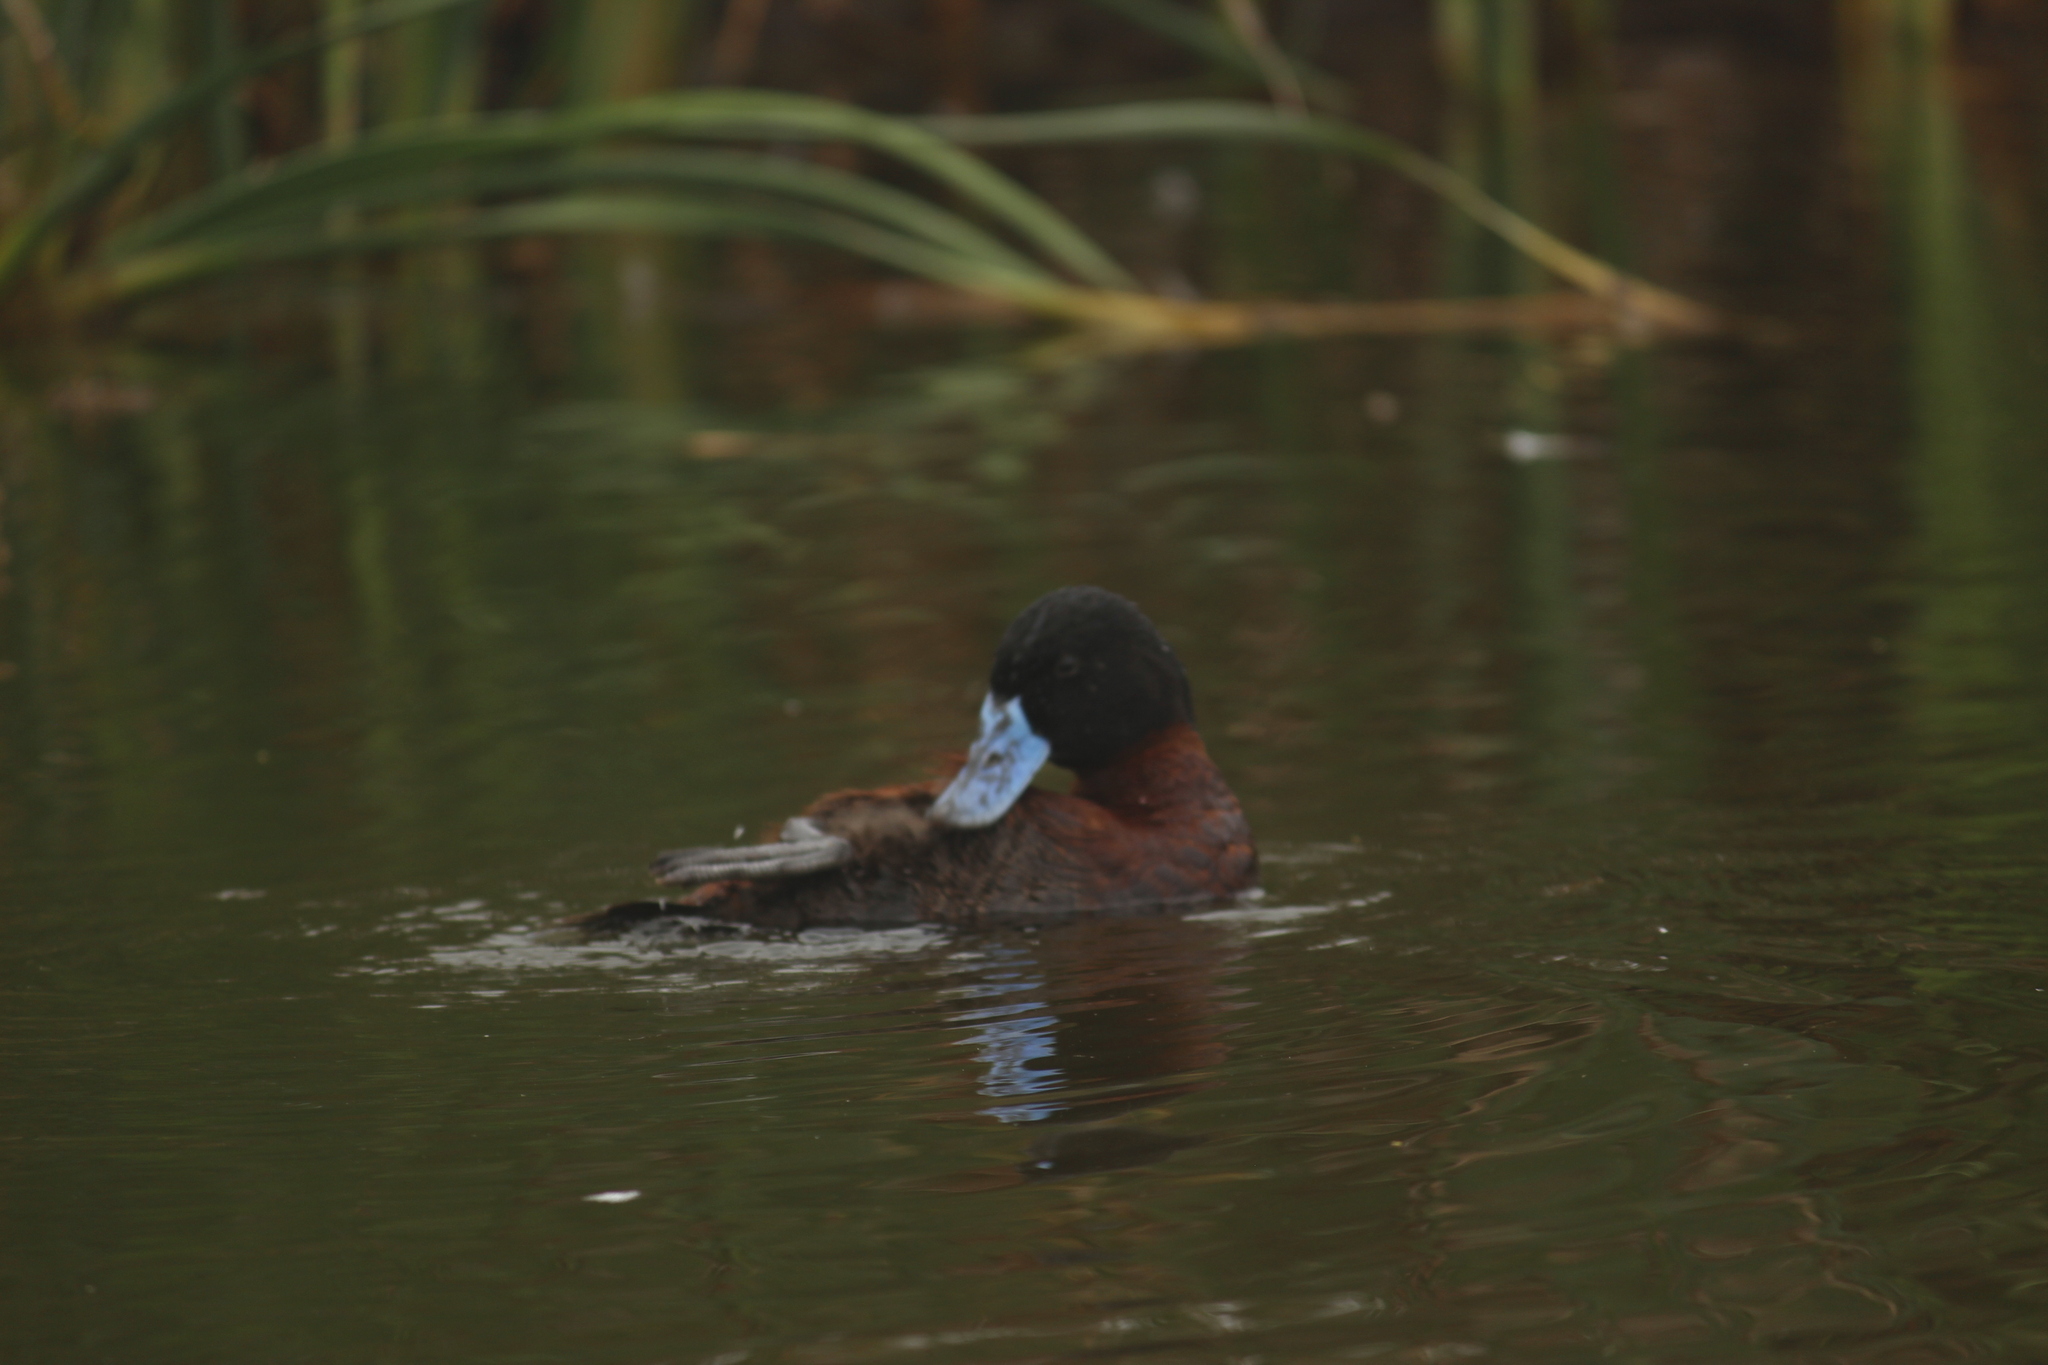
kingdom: Animalia
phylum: Chordata
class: Aves
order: Anseriformes
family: Anatidae
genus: Oxyura
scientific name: Oxyura ferruginea
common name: Andean duck
